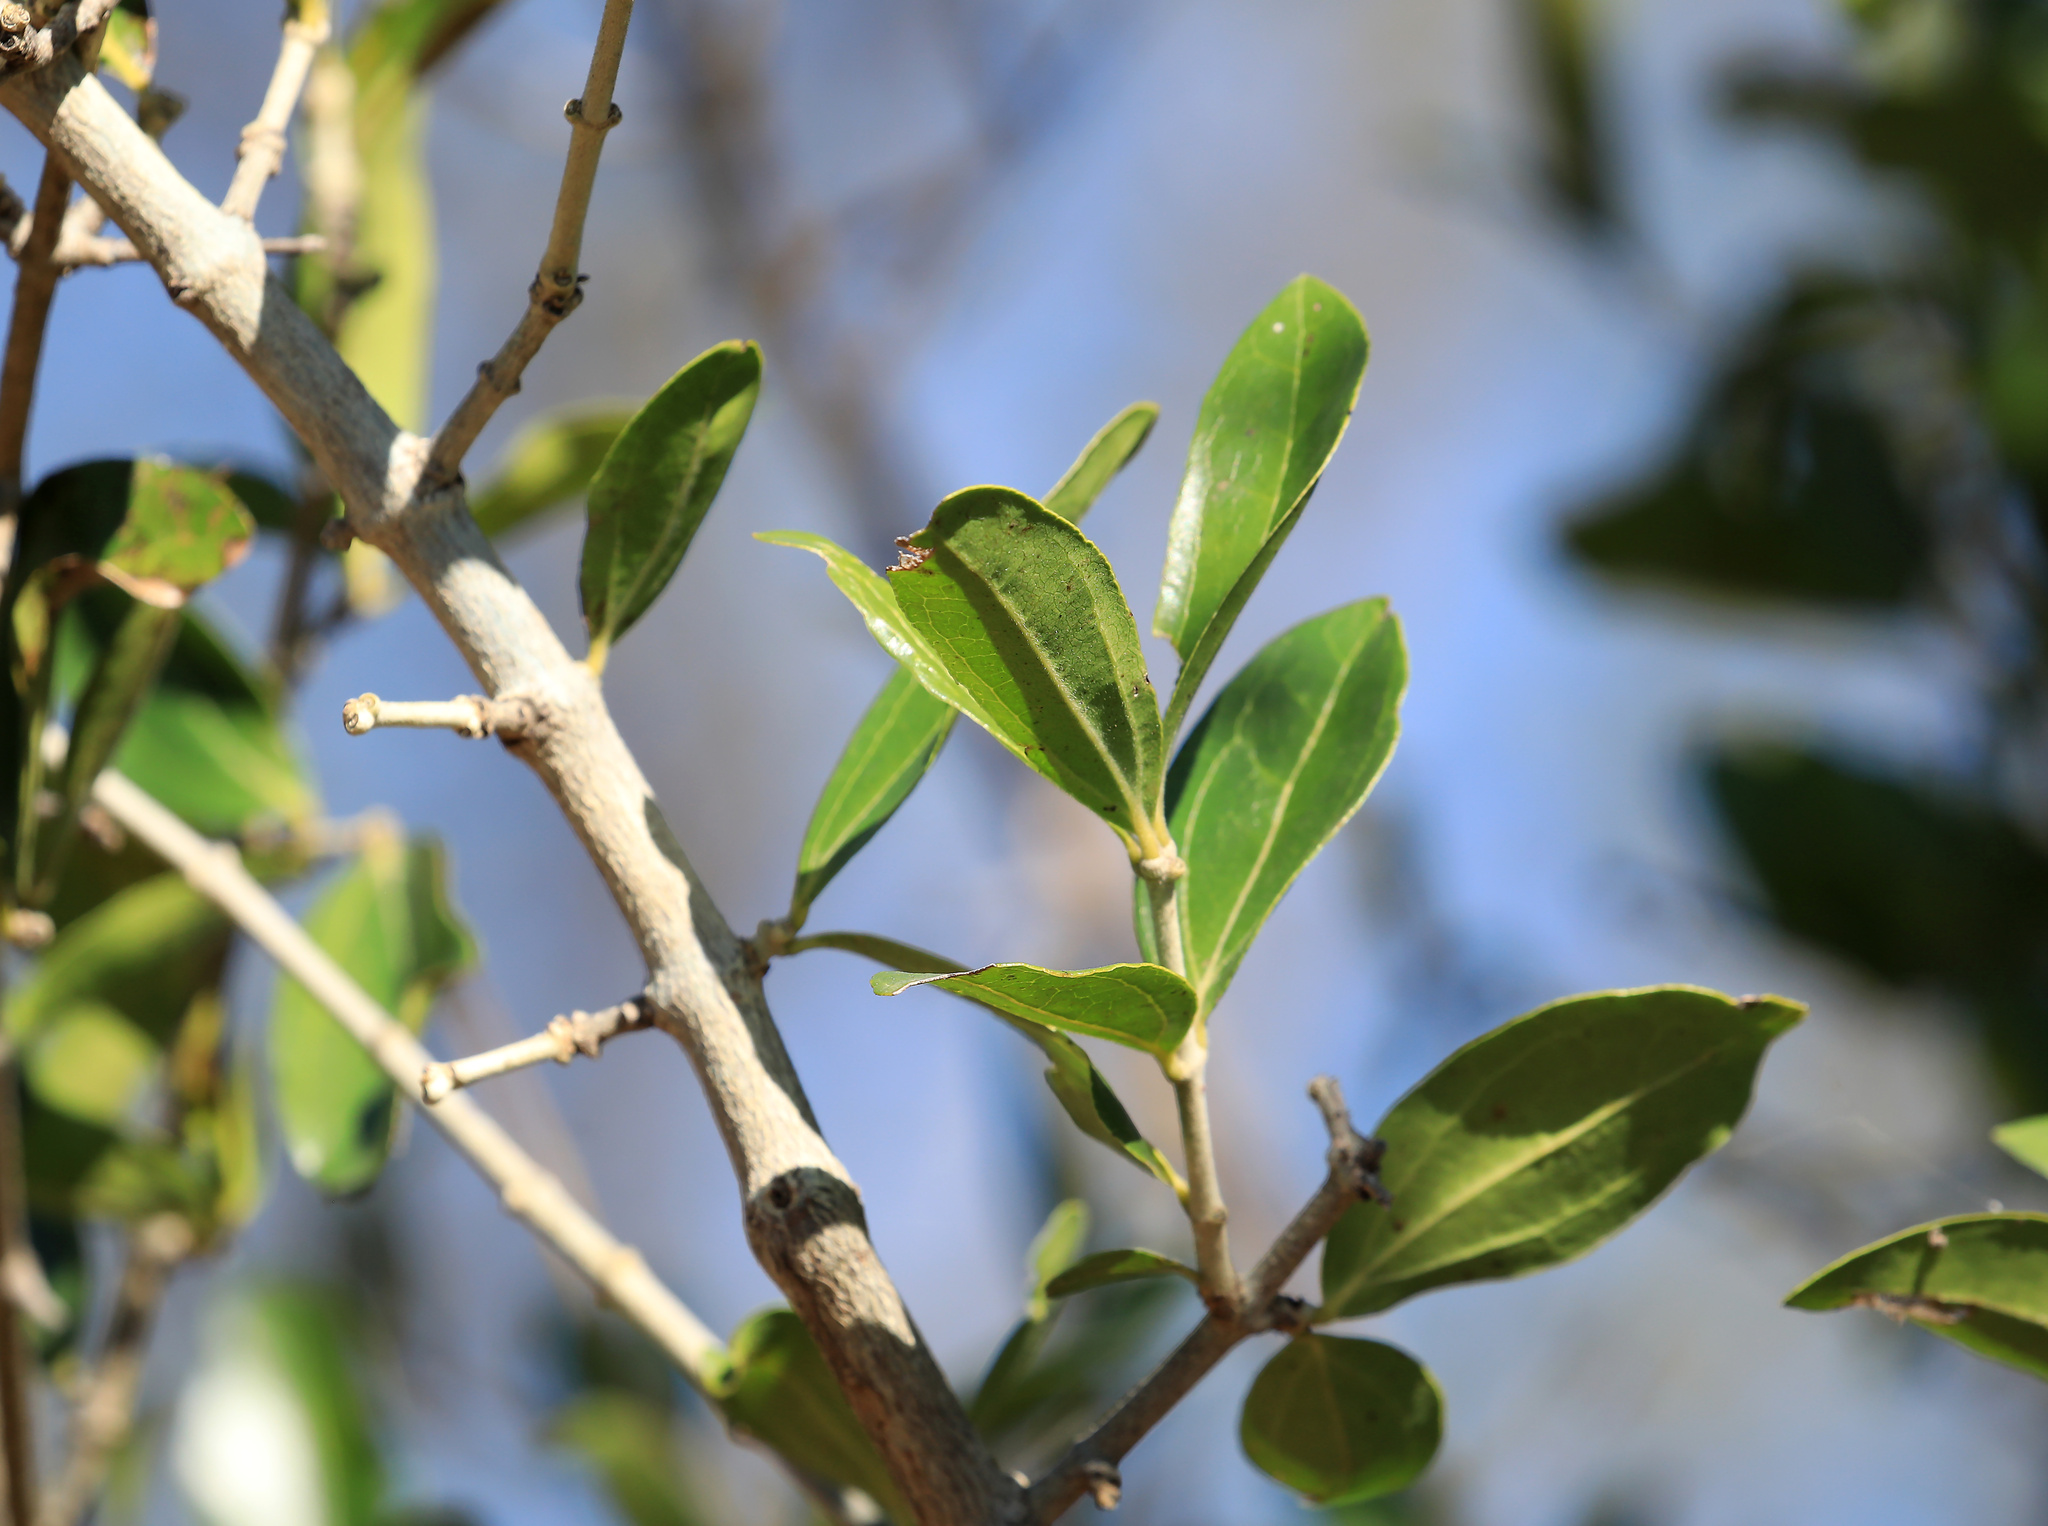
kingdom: Plantae
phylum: Tracheophyta
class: Magnoliopsida
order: Gentianales
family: Loganiaceae
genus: Strychnos
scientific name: Strychnos madagascariensis
